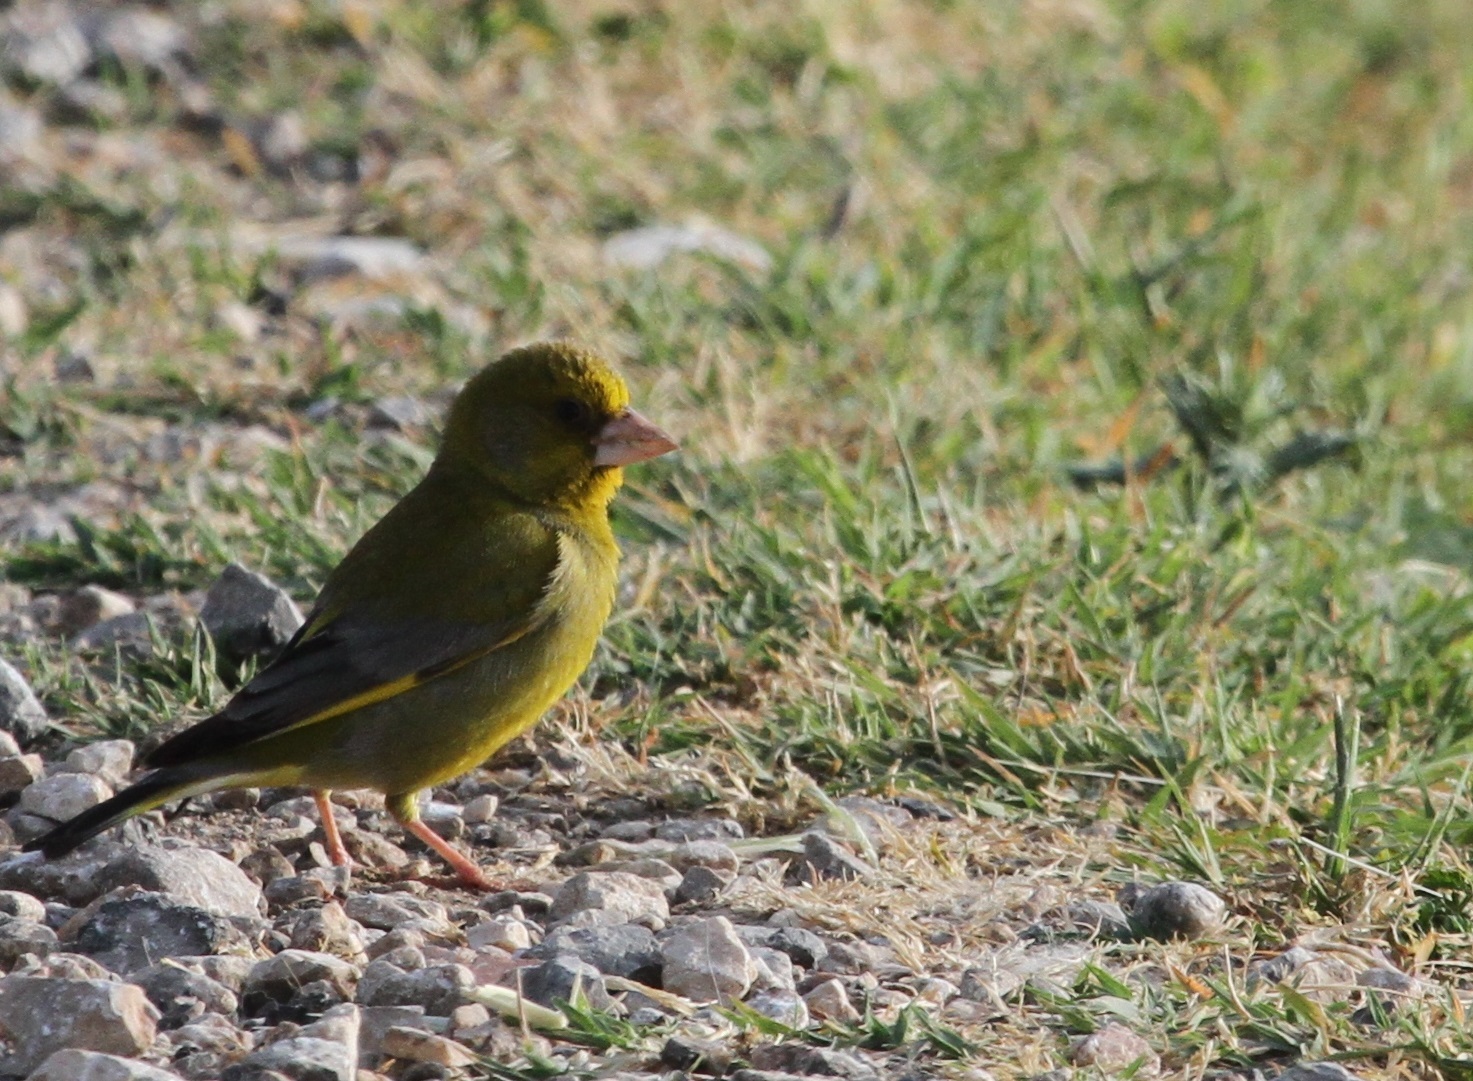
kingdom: Plantae
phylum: Tracheophyta
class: Liliopsida
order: Poales
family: Poaceae
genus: Chloris
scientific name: Chloris chloris
